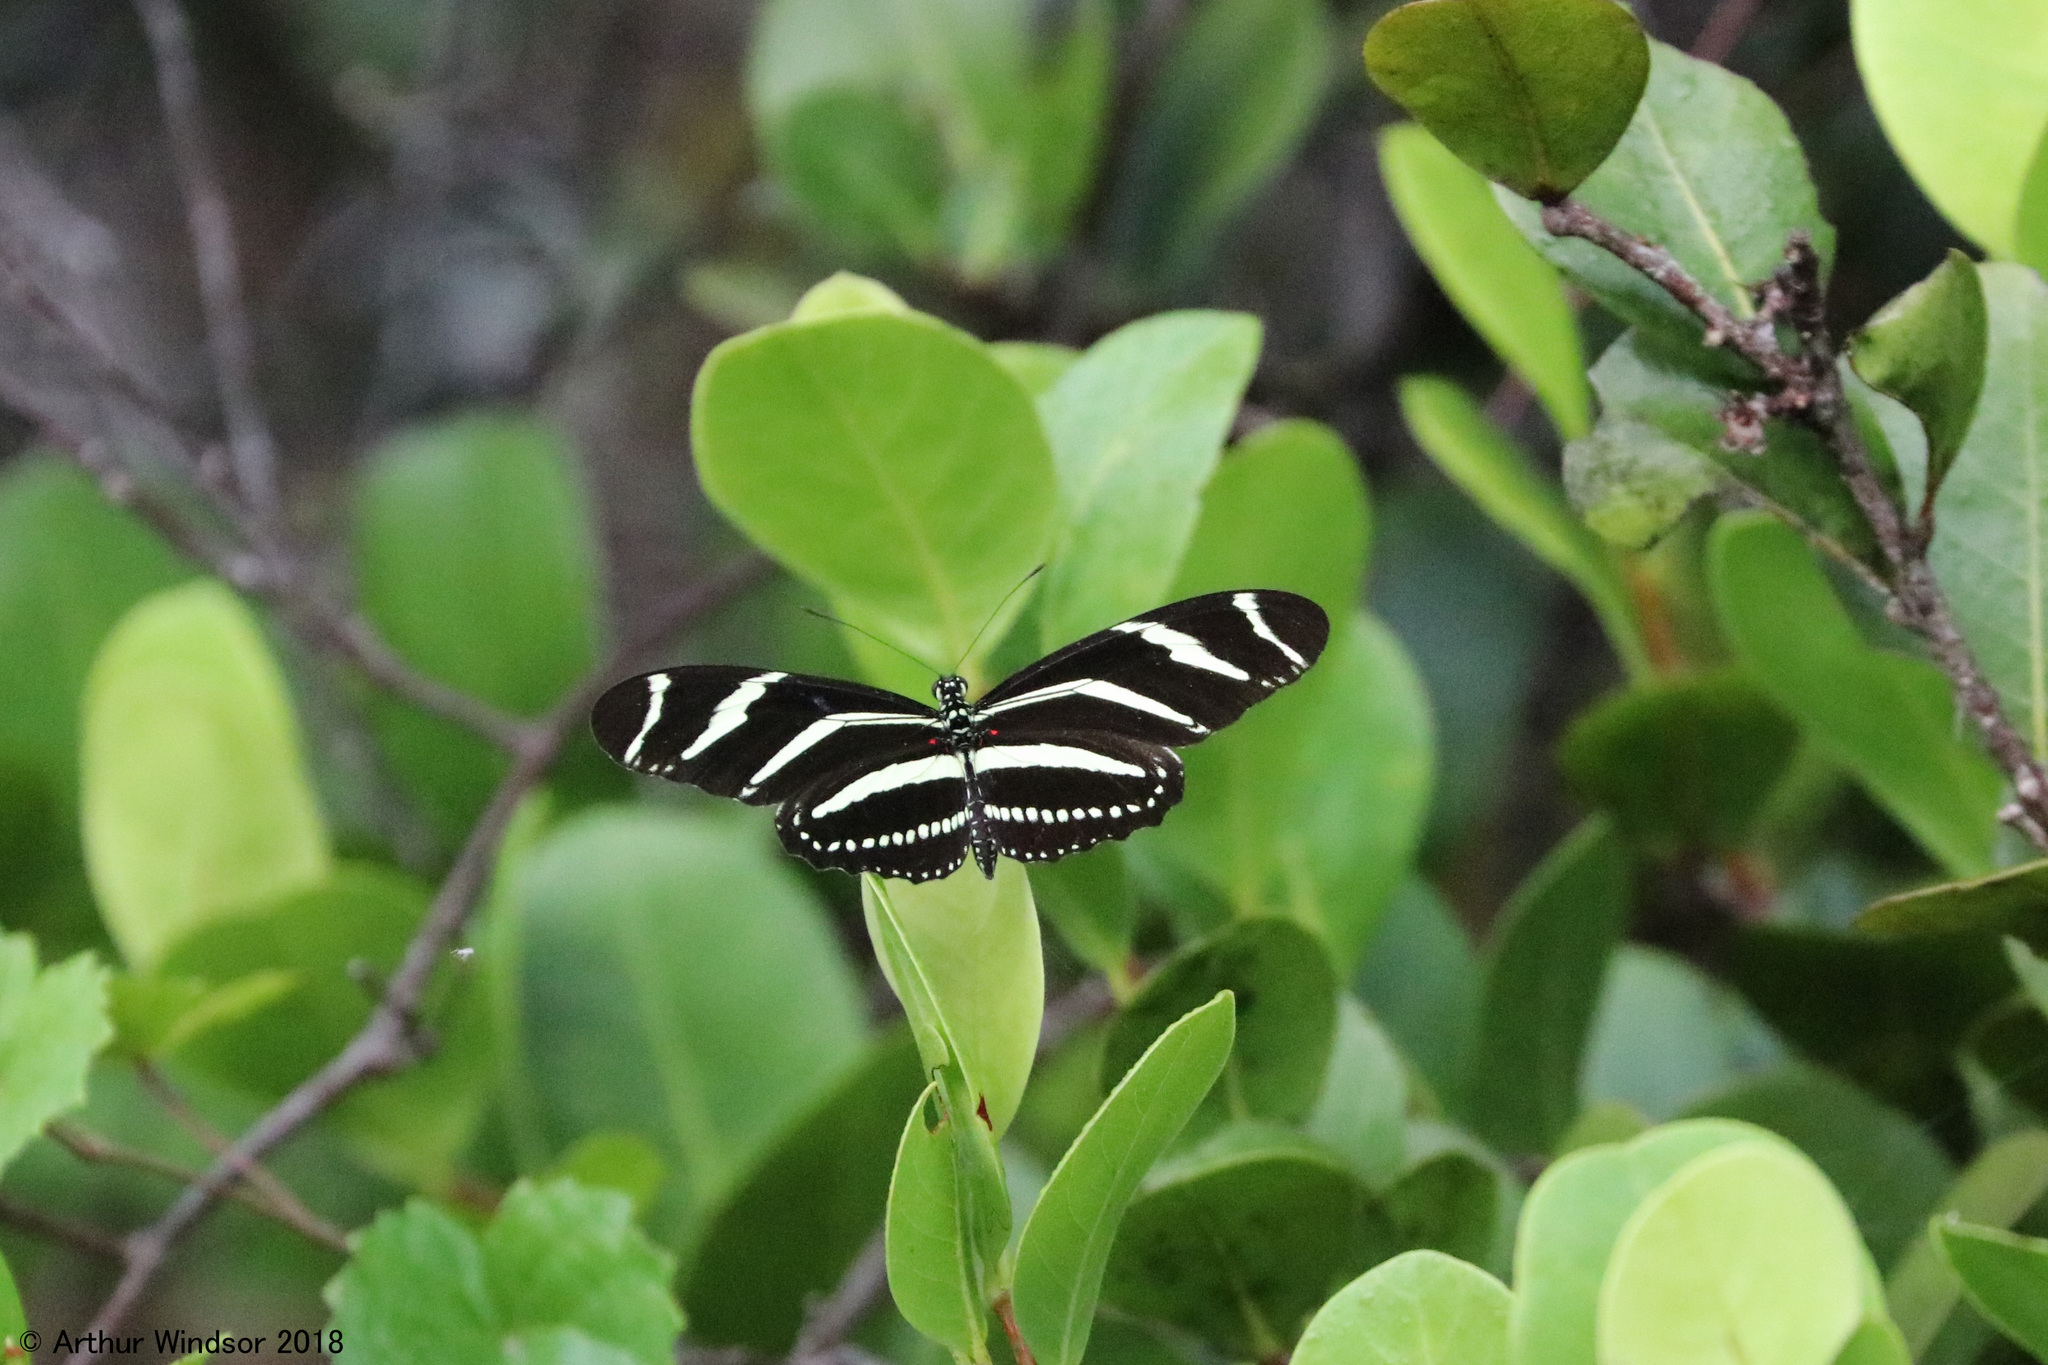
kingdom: Animalia
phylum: Arthropoda
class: Insecta
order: Lepidoptera
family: Nymphalidae
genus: Heliconius
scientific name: Heliconius charithonia
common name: Zebra long wing
